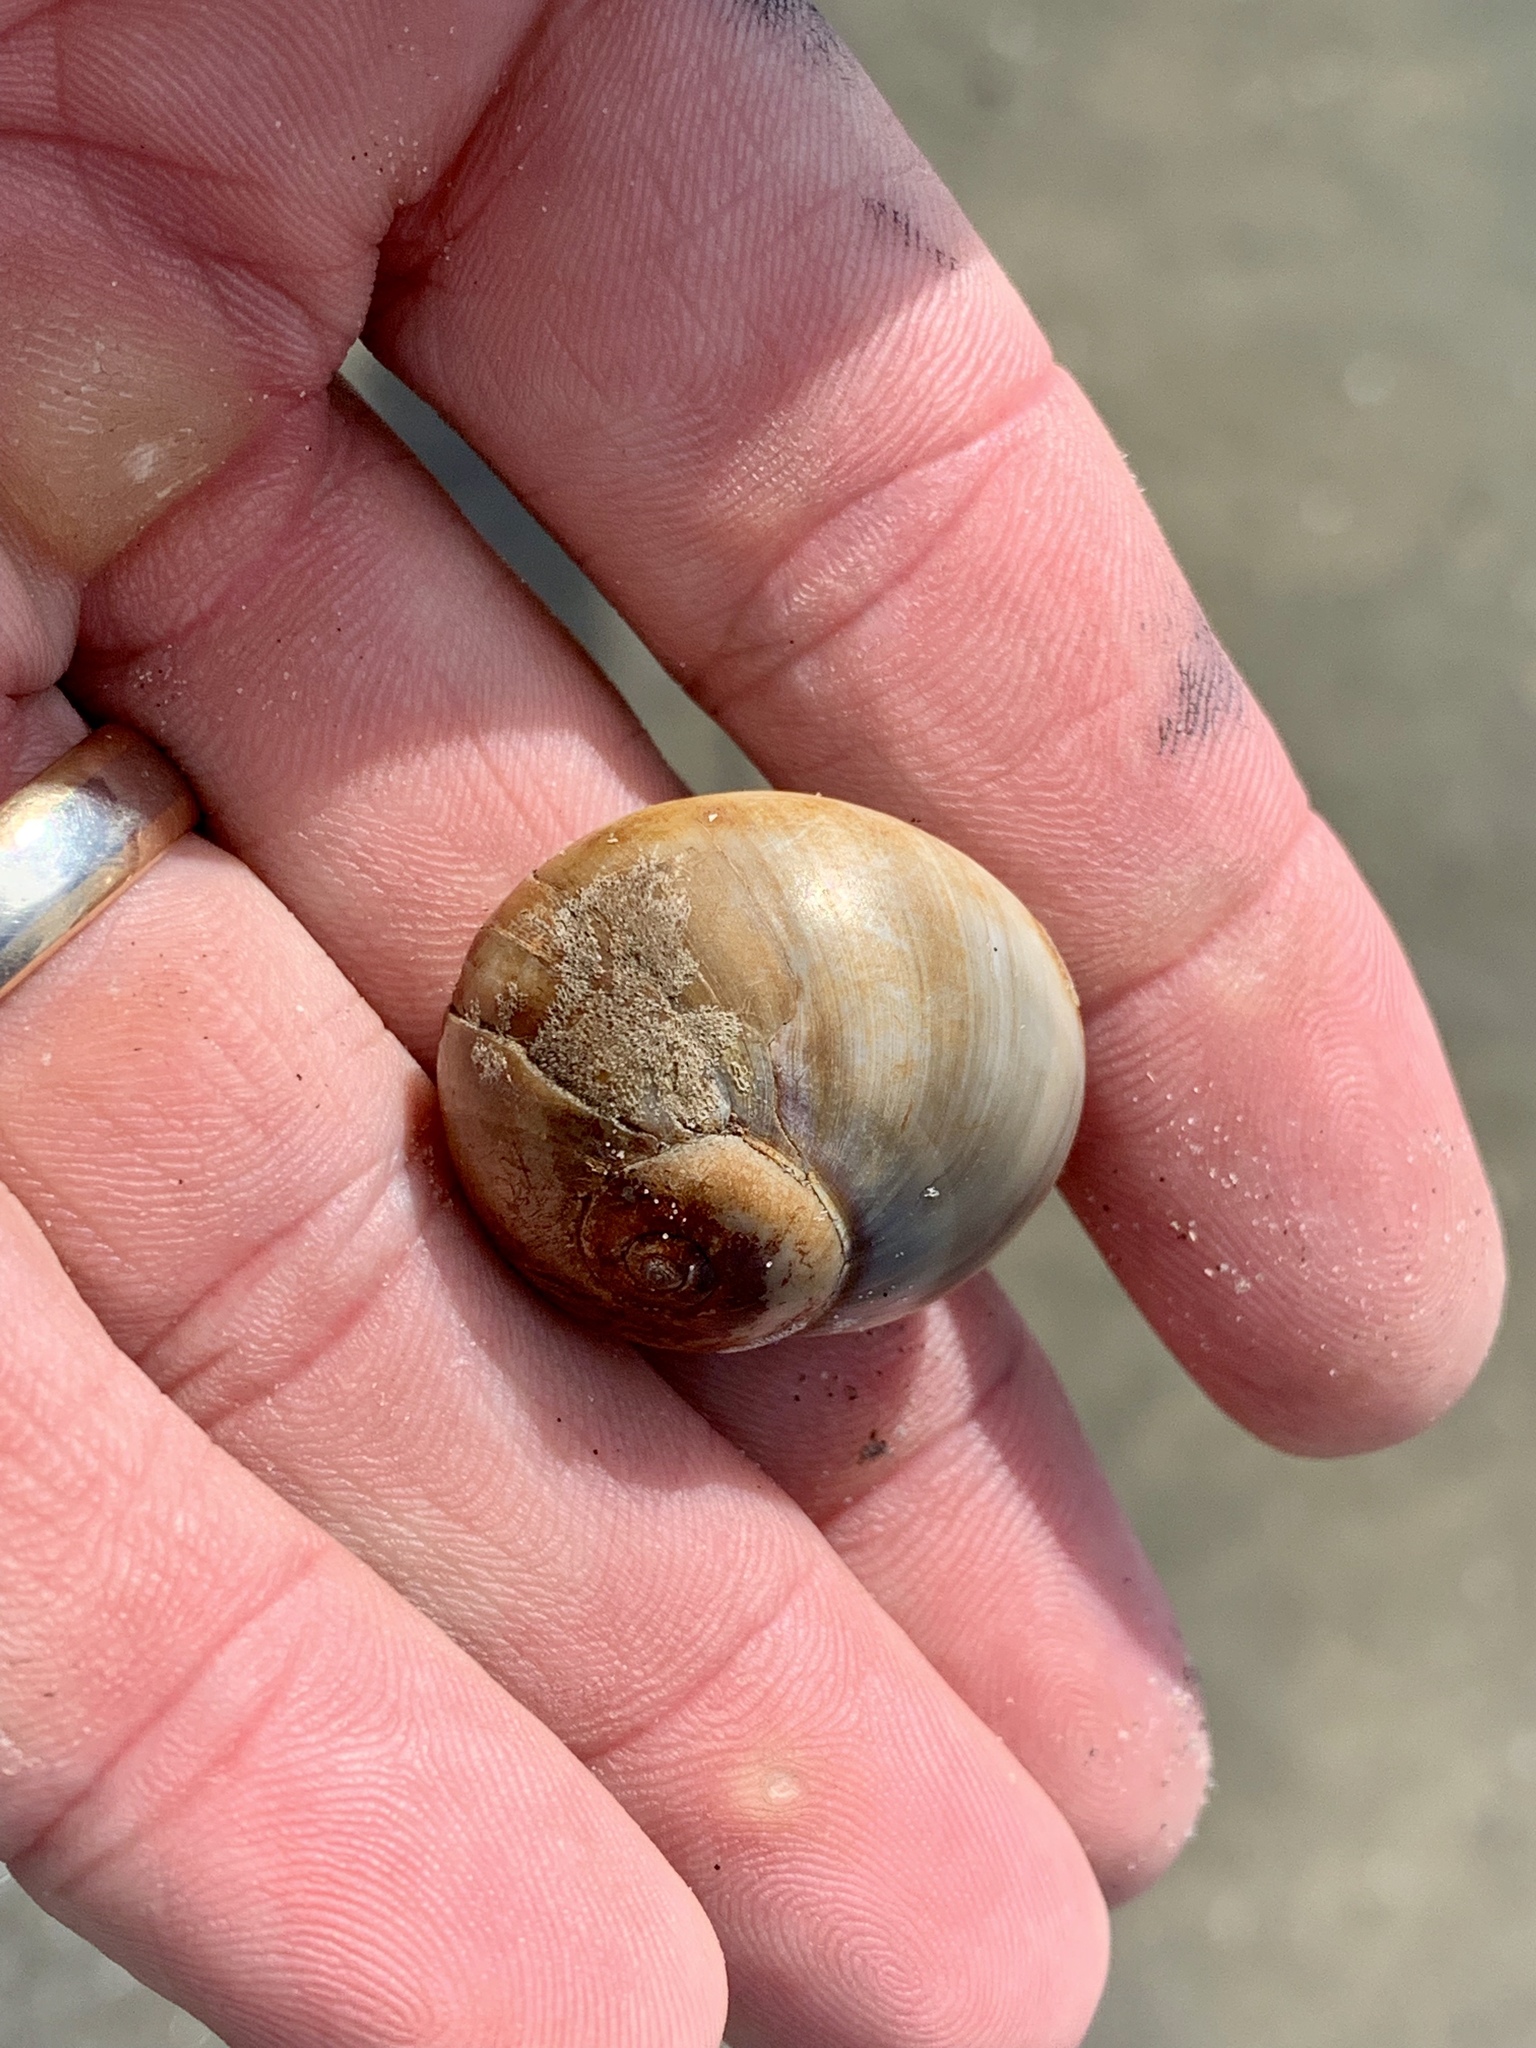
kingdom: Animalia
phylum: Mollusca
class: Gastropoda
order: Littorinimorpha
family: Naticidae
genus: Neverita
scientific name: Neverita delessertiana
